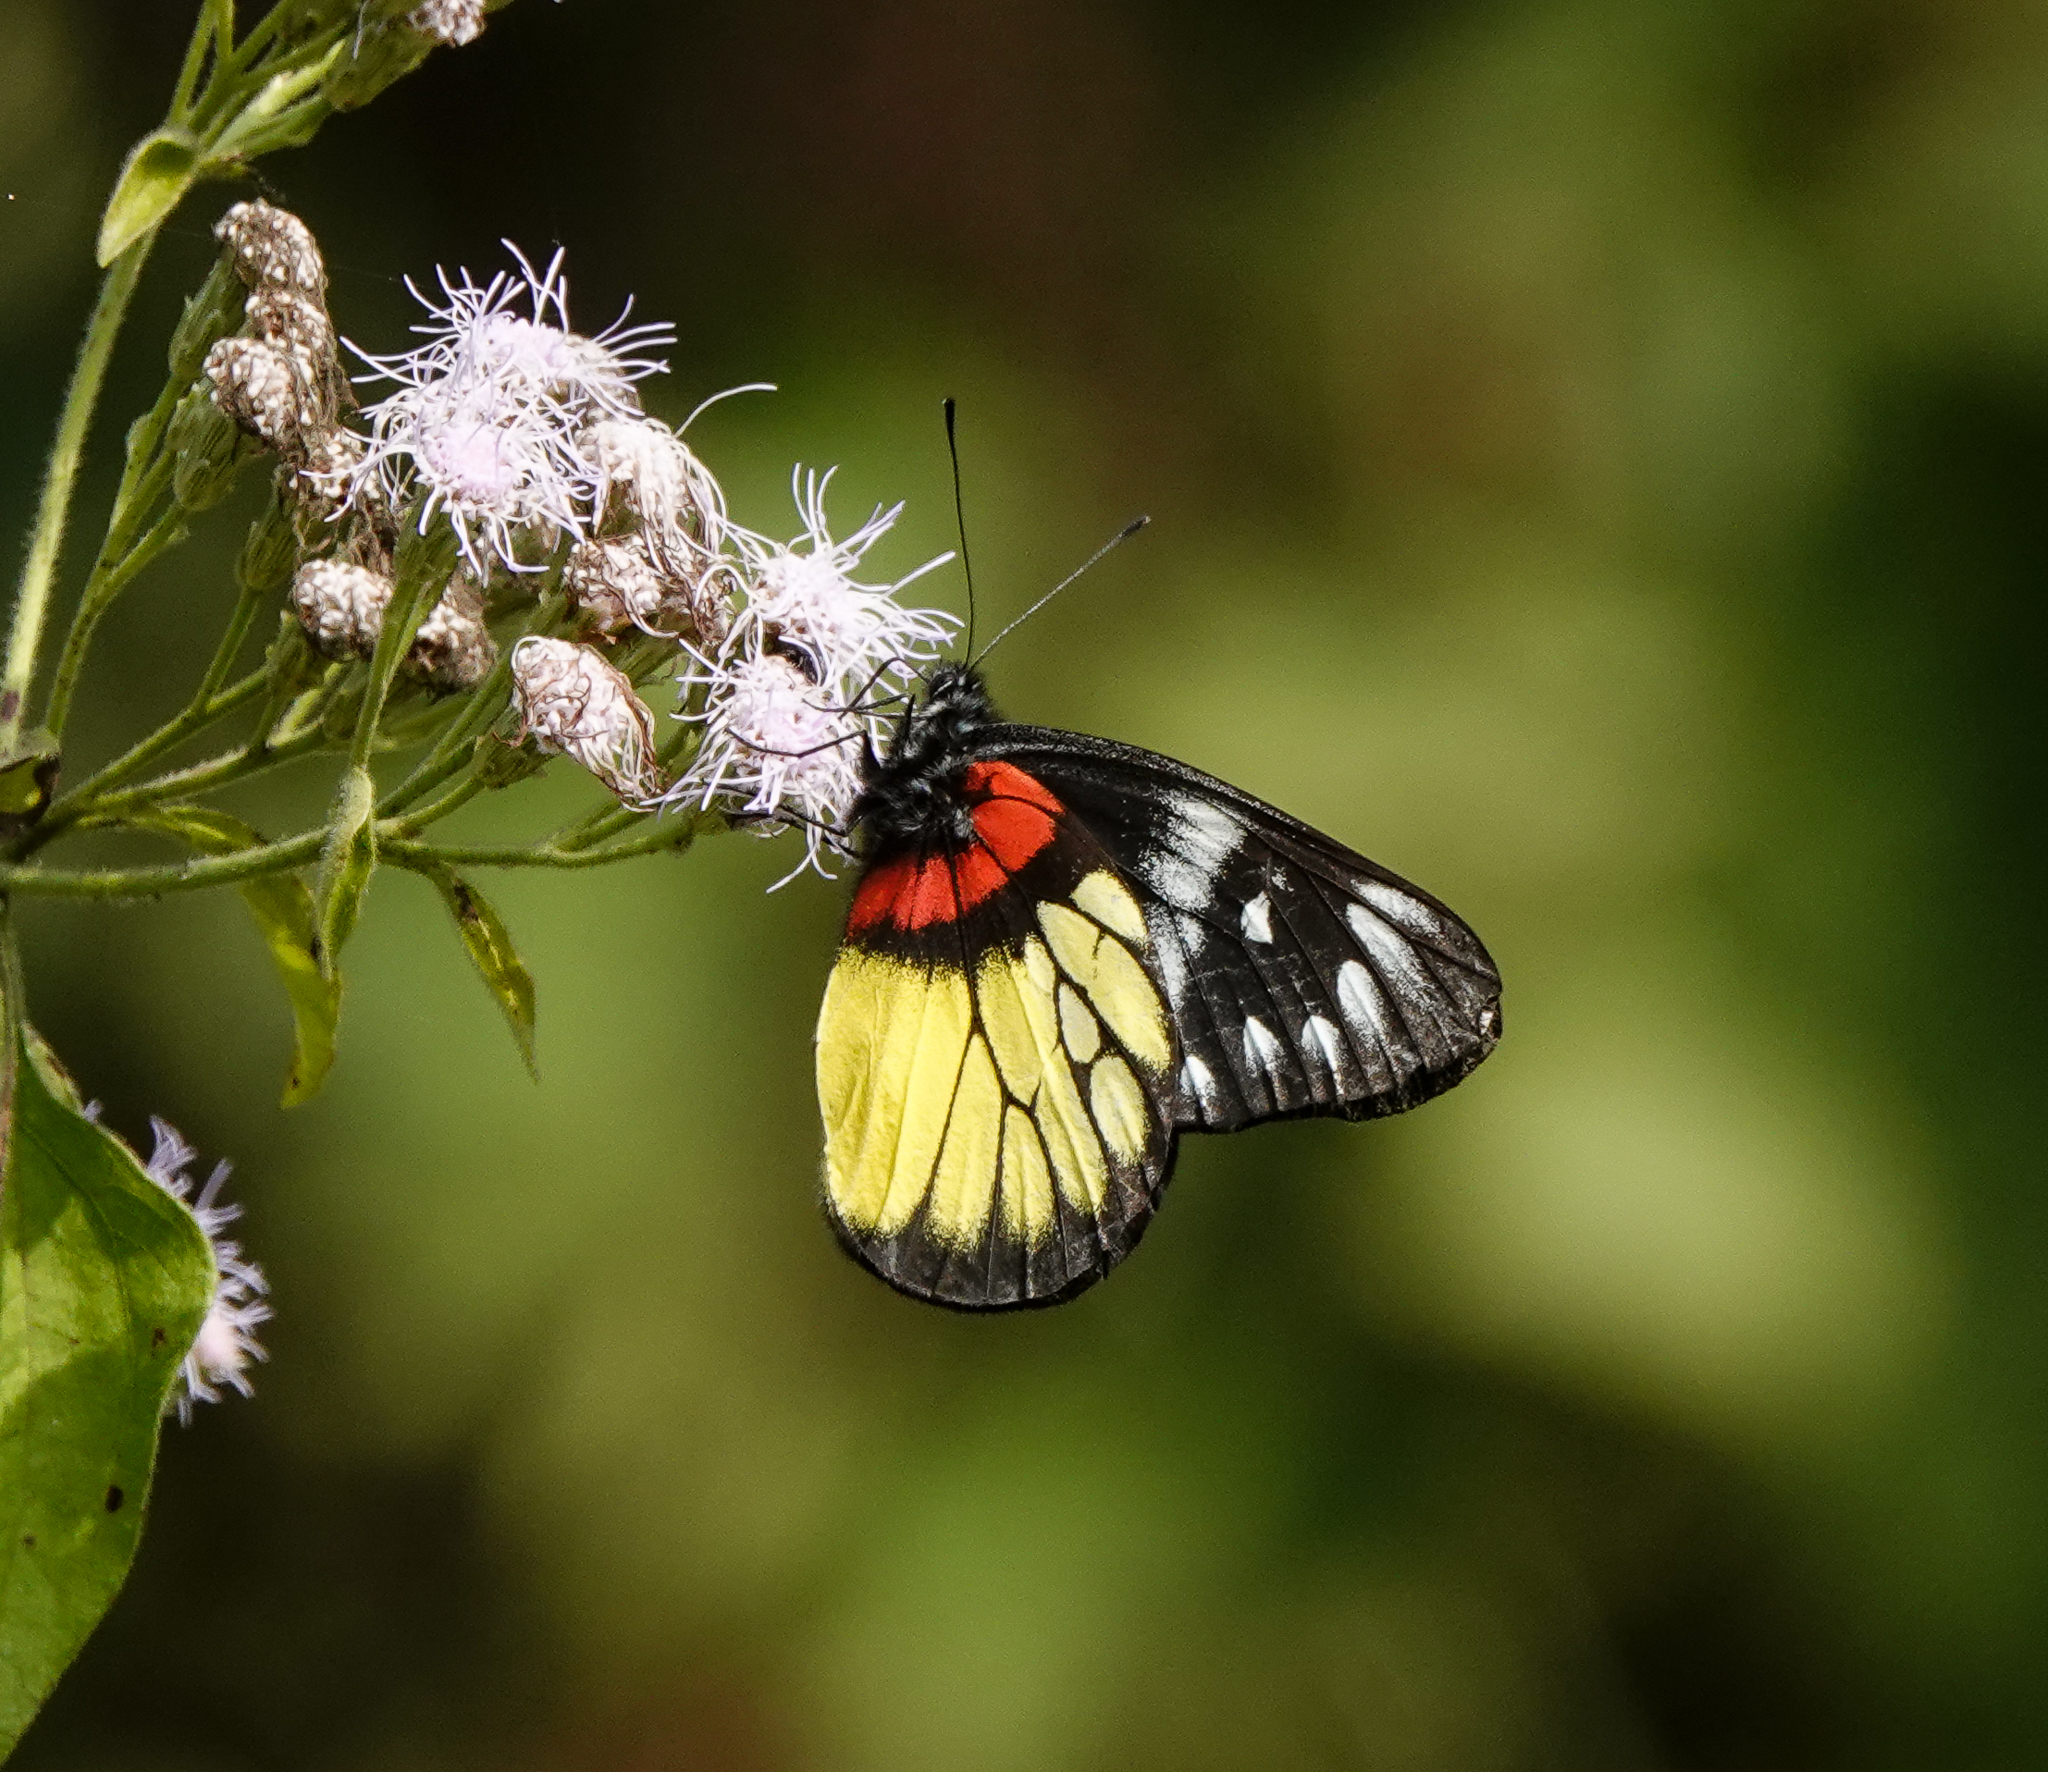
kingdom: Animalia
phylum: Arthropoda
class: Insecta
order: Lepidoptera
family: Pieridae
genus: Delias
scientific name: Delias pasithoe
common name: Red-base jezebel
